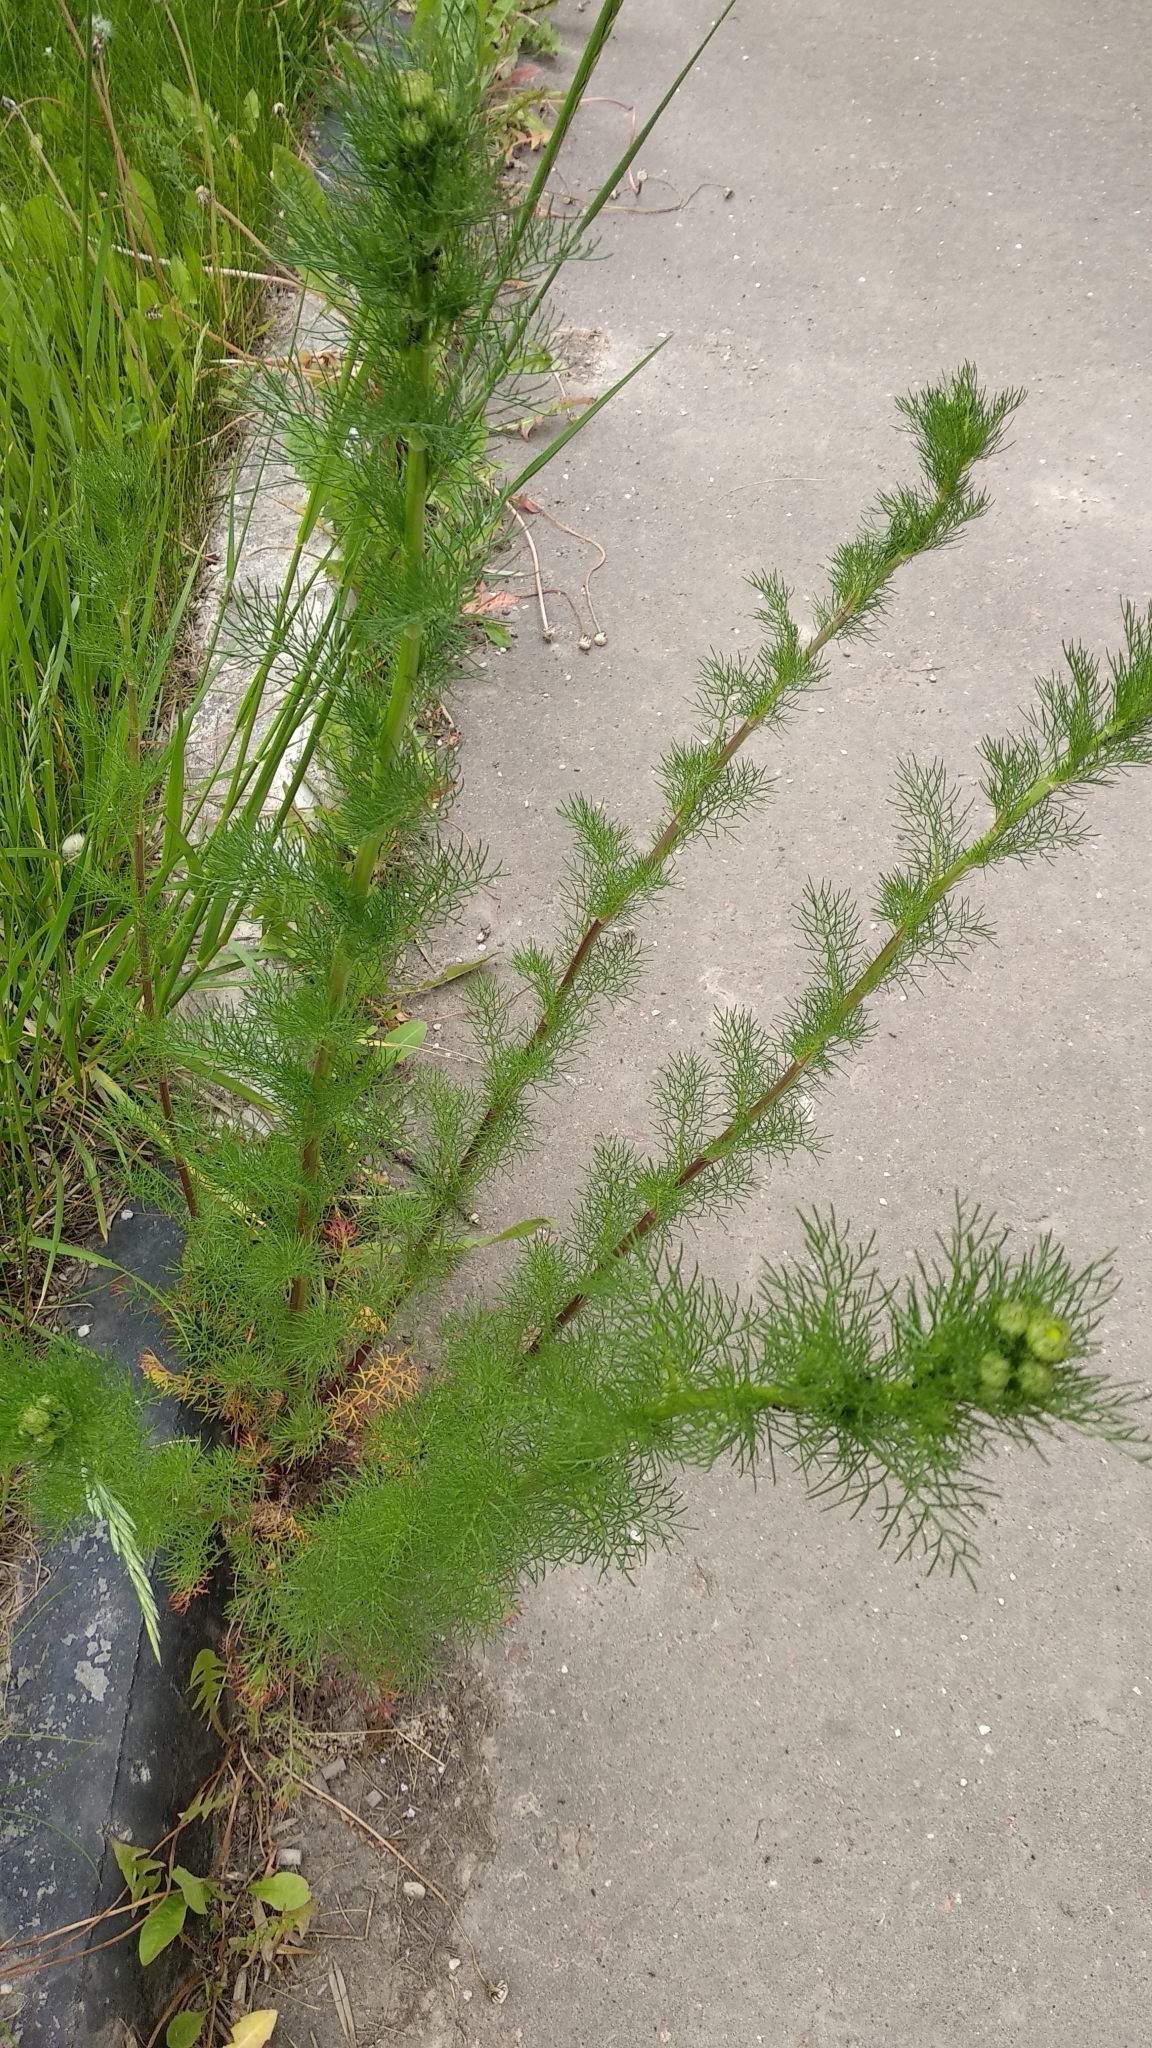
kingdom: Plantae
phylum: Tracheophyta
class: Magnoliopsida
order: Asterales
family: Asteraceae
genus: Tripleurospermum
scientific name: Tripleurospermum inodorum
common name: Scentless mayweed
